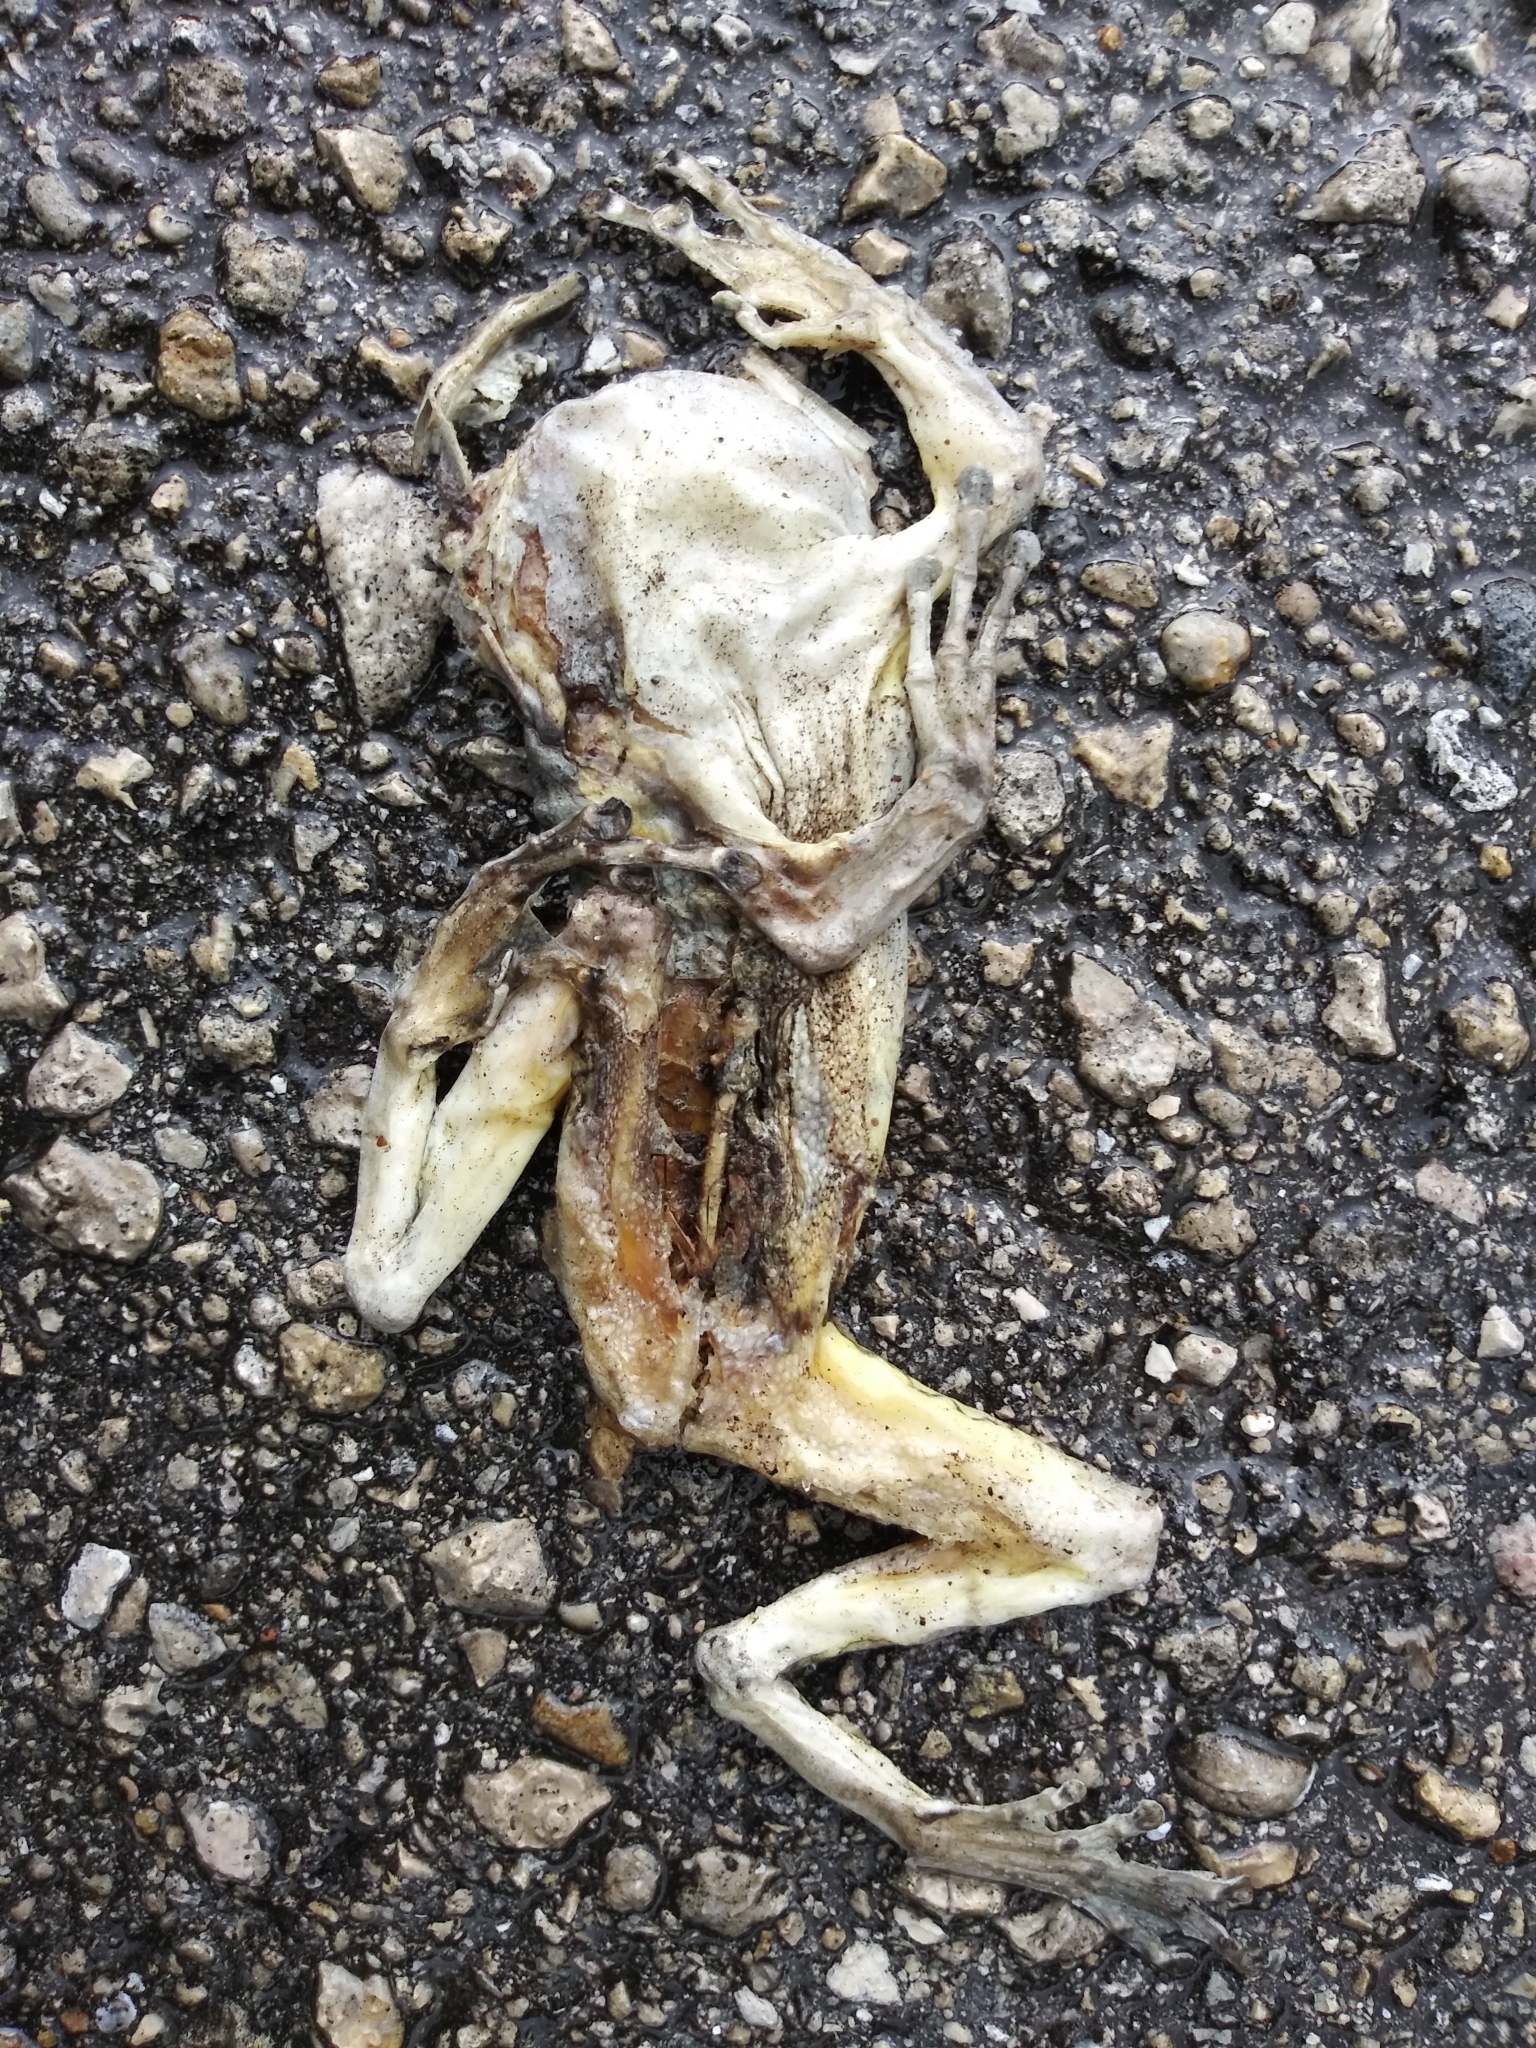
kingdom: Animalia
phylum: Chordata
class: Amphibia
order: Anura
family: Hylidae
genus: Osteopilus
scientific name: Osteopilus septentrionalis
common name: Cuban treefrog
